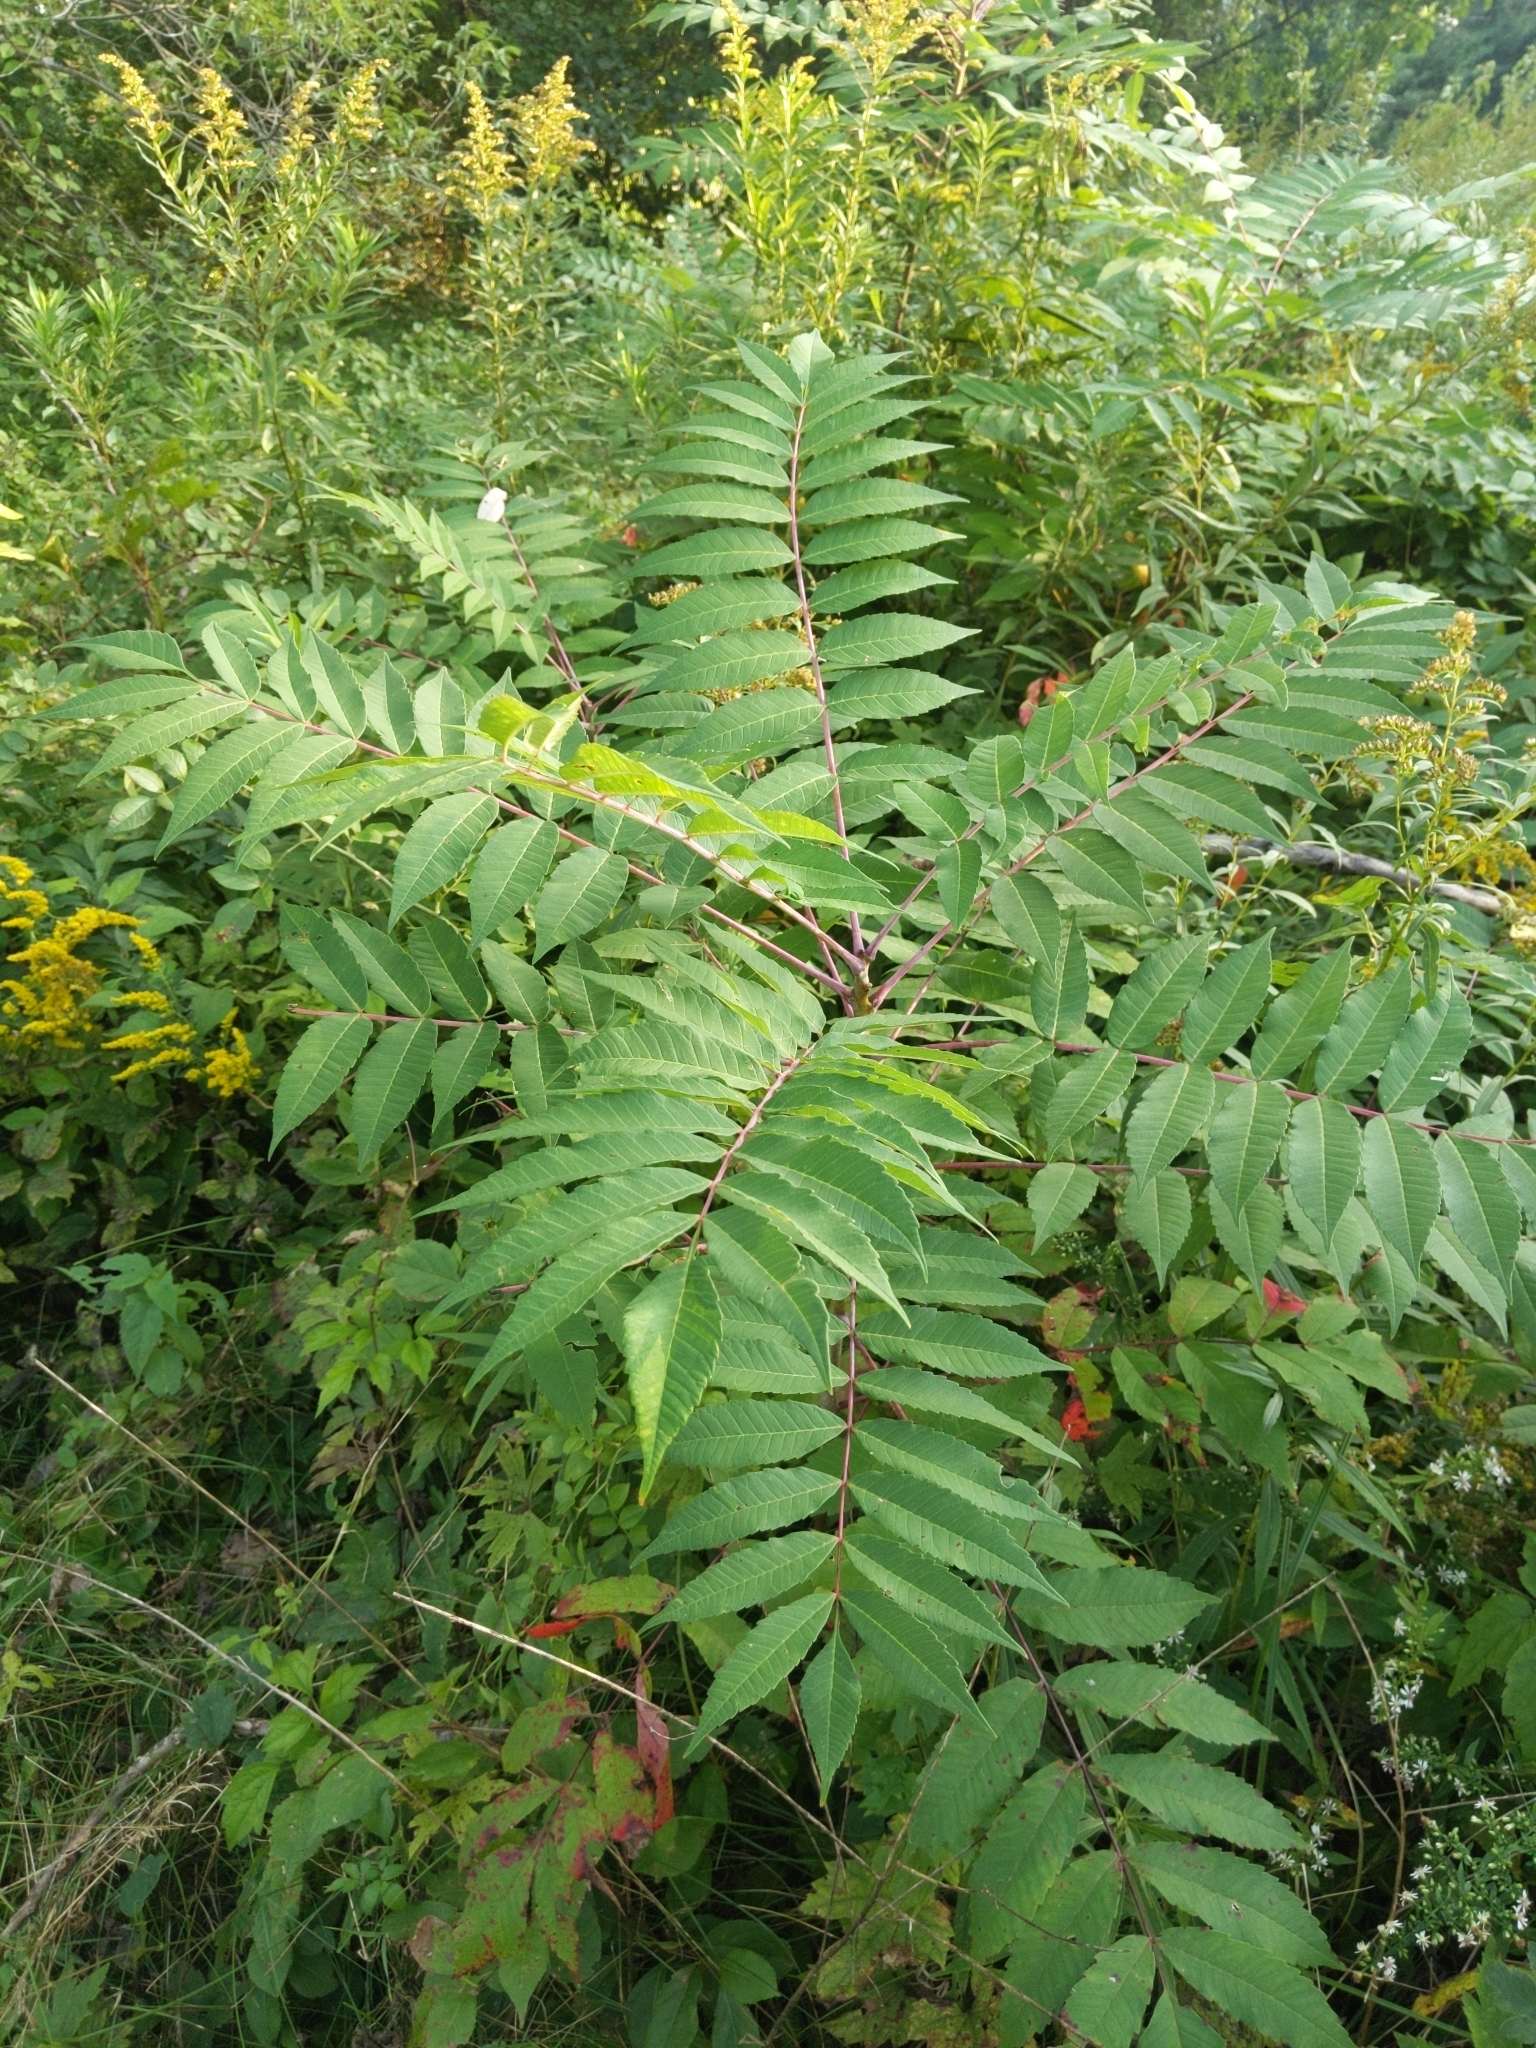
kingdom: Plantae
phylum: Tracheophyta
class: Magnoliopsida
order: Sapindales
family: Anacardiaceae
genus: Rhus
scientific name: Rhus glabra
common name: Scarlet sumac
